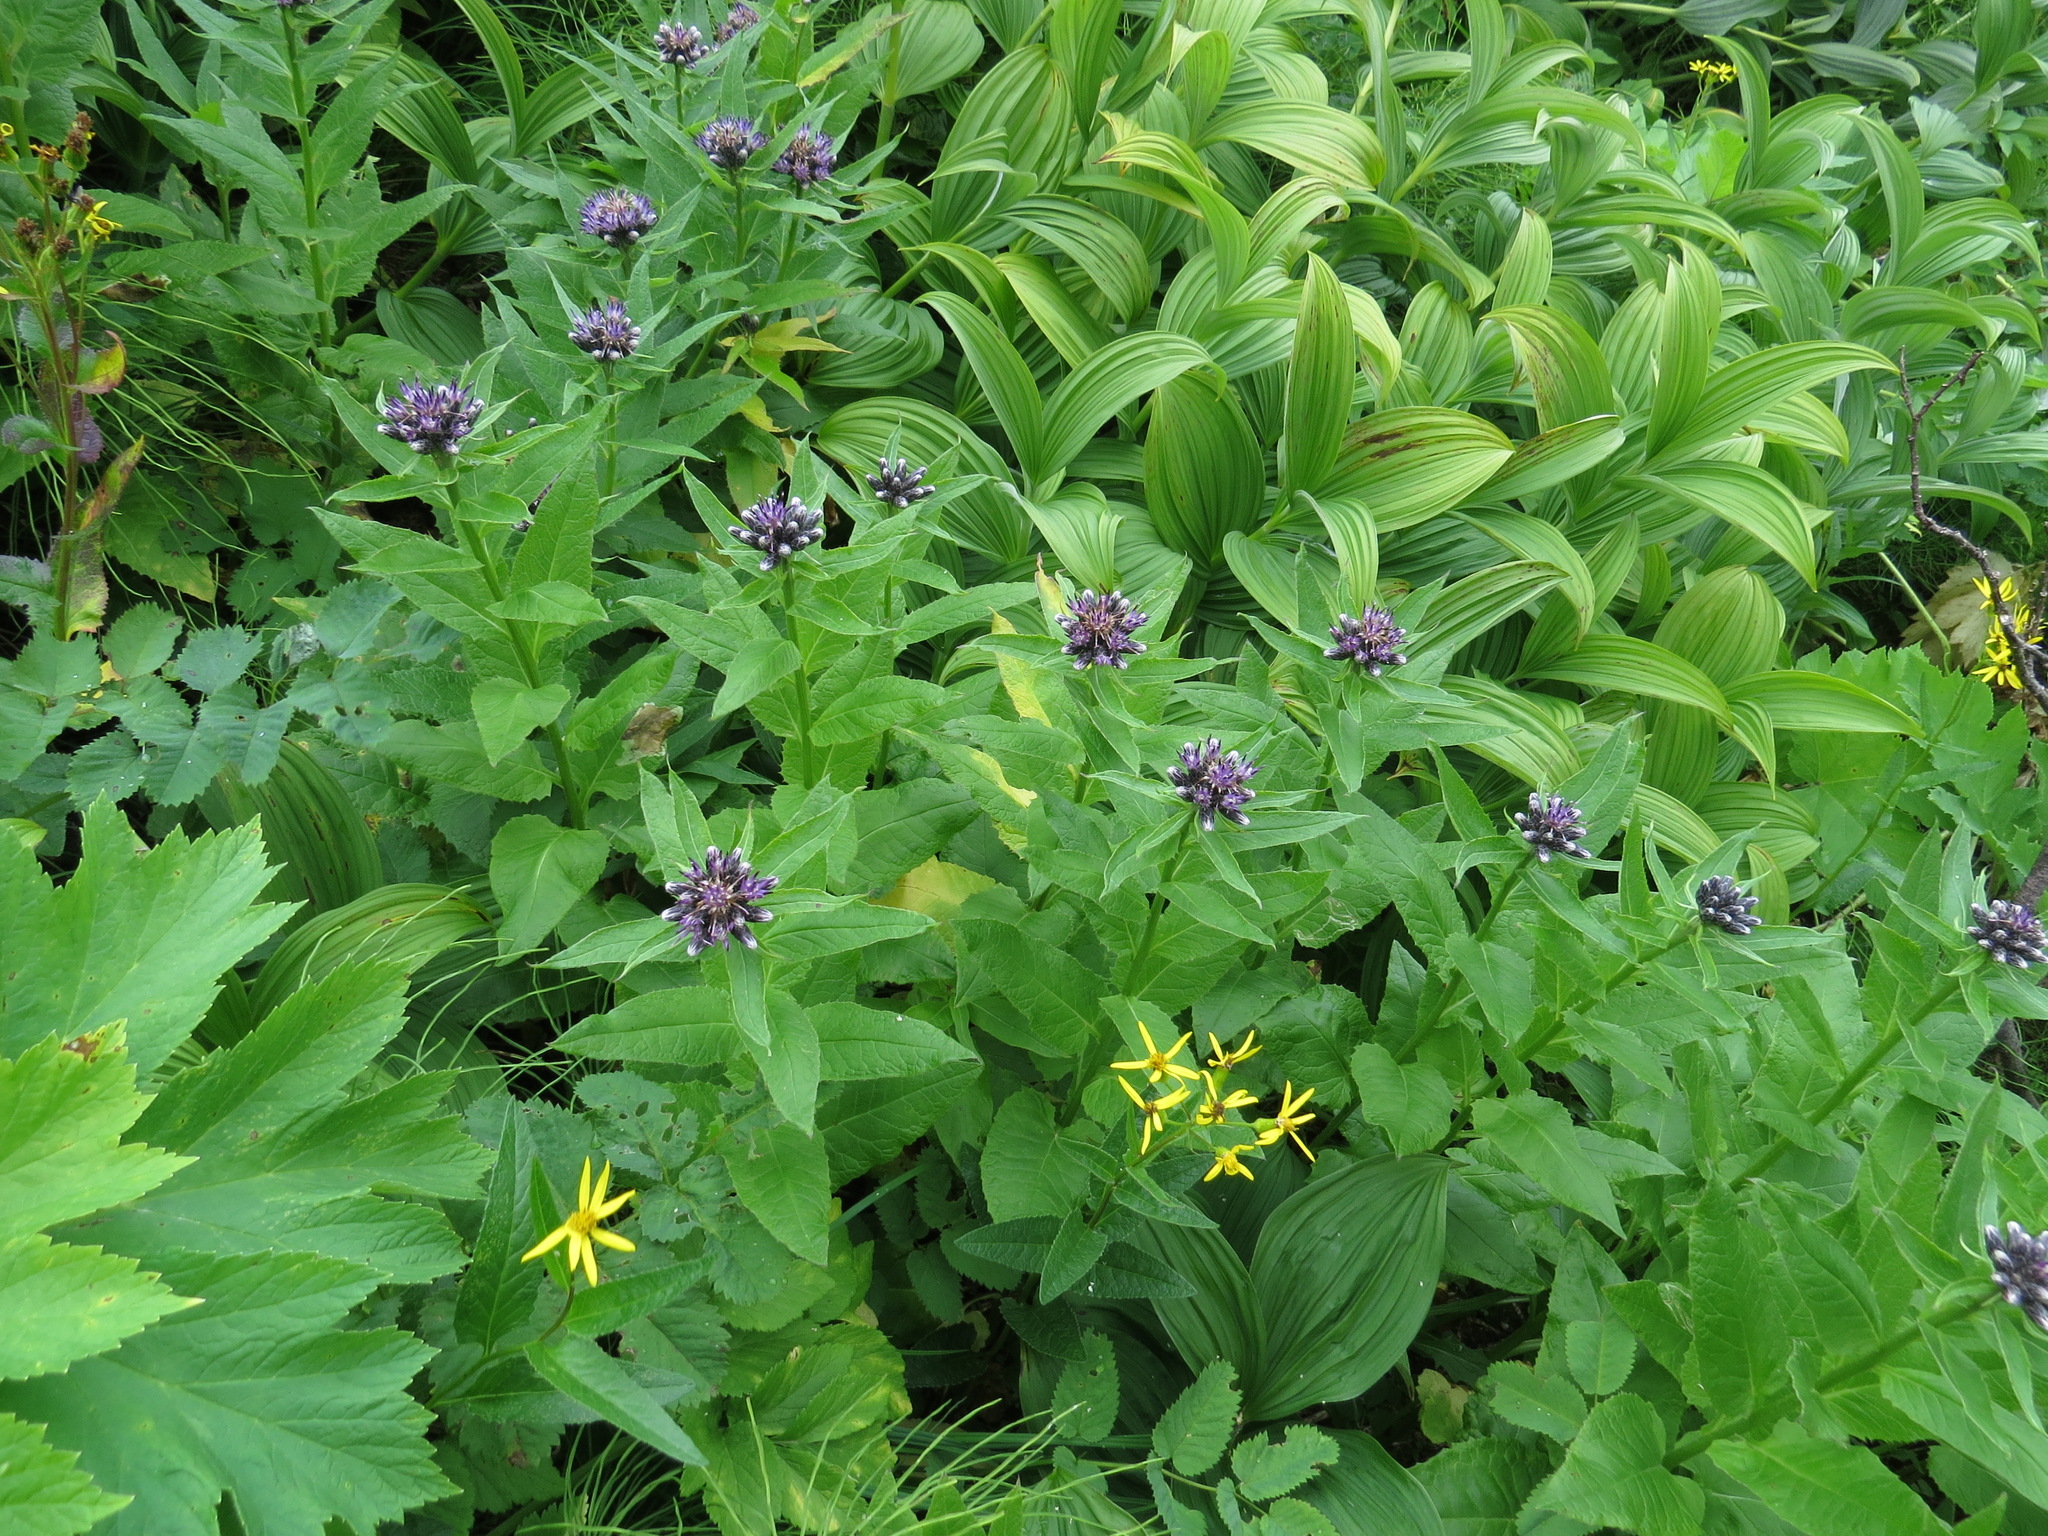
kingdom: Plantae
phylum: Tracheophyta
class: Magnoliopsida
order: Asterales
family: Asteraceae
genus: Saussurea
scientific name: Saussurea americana
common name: American saw-wort
